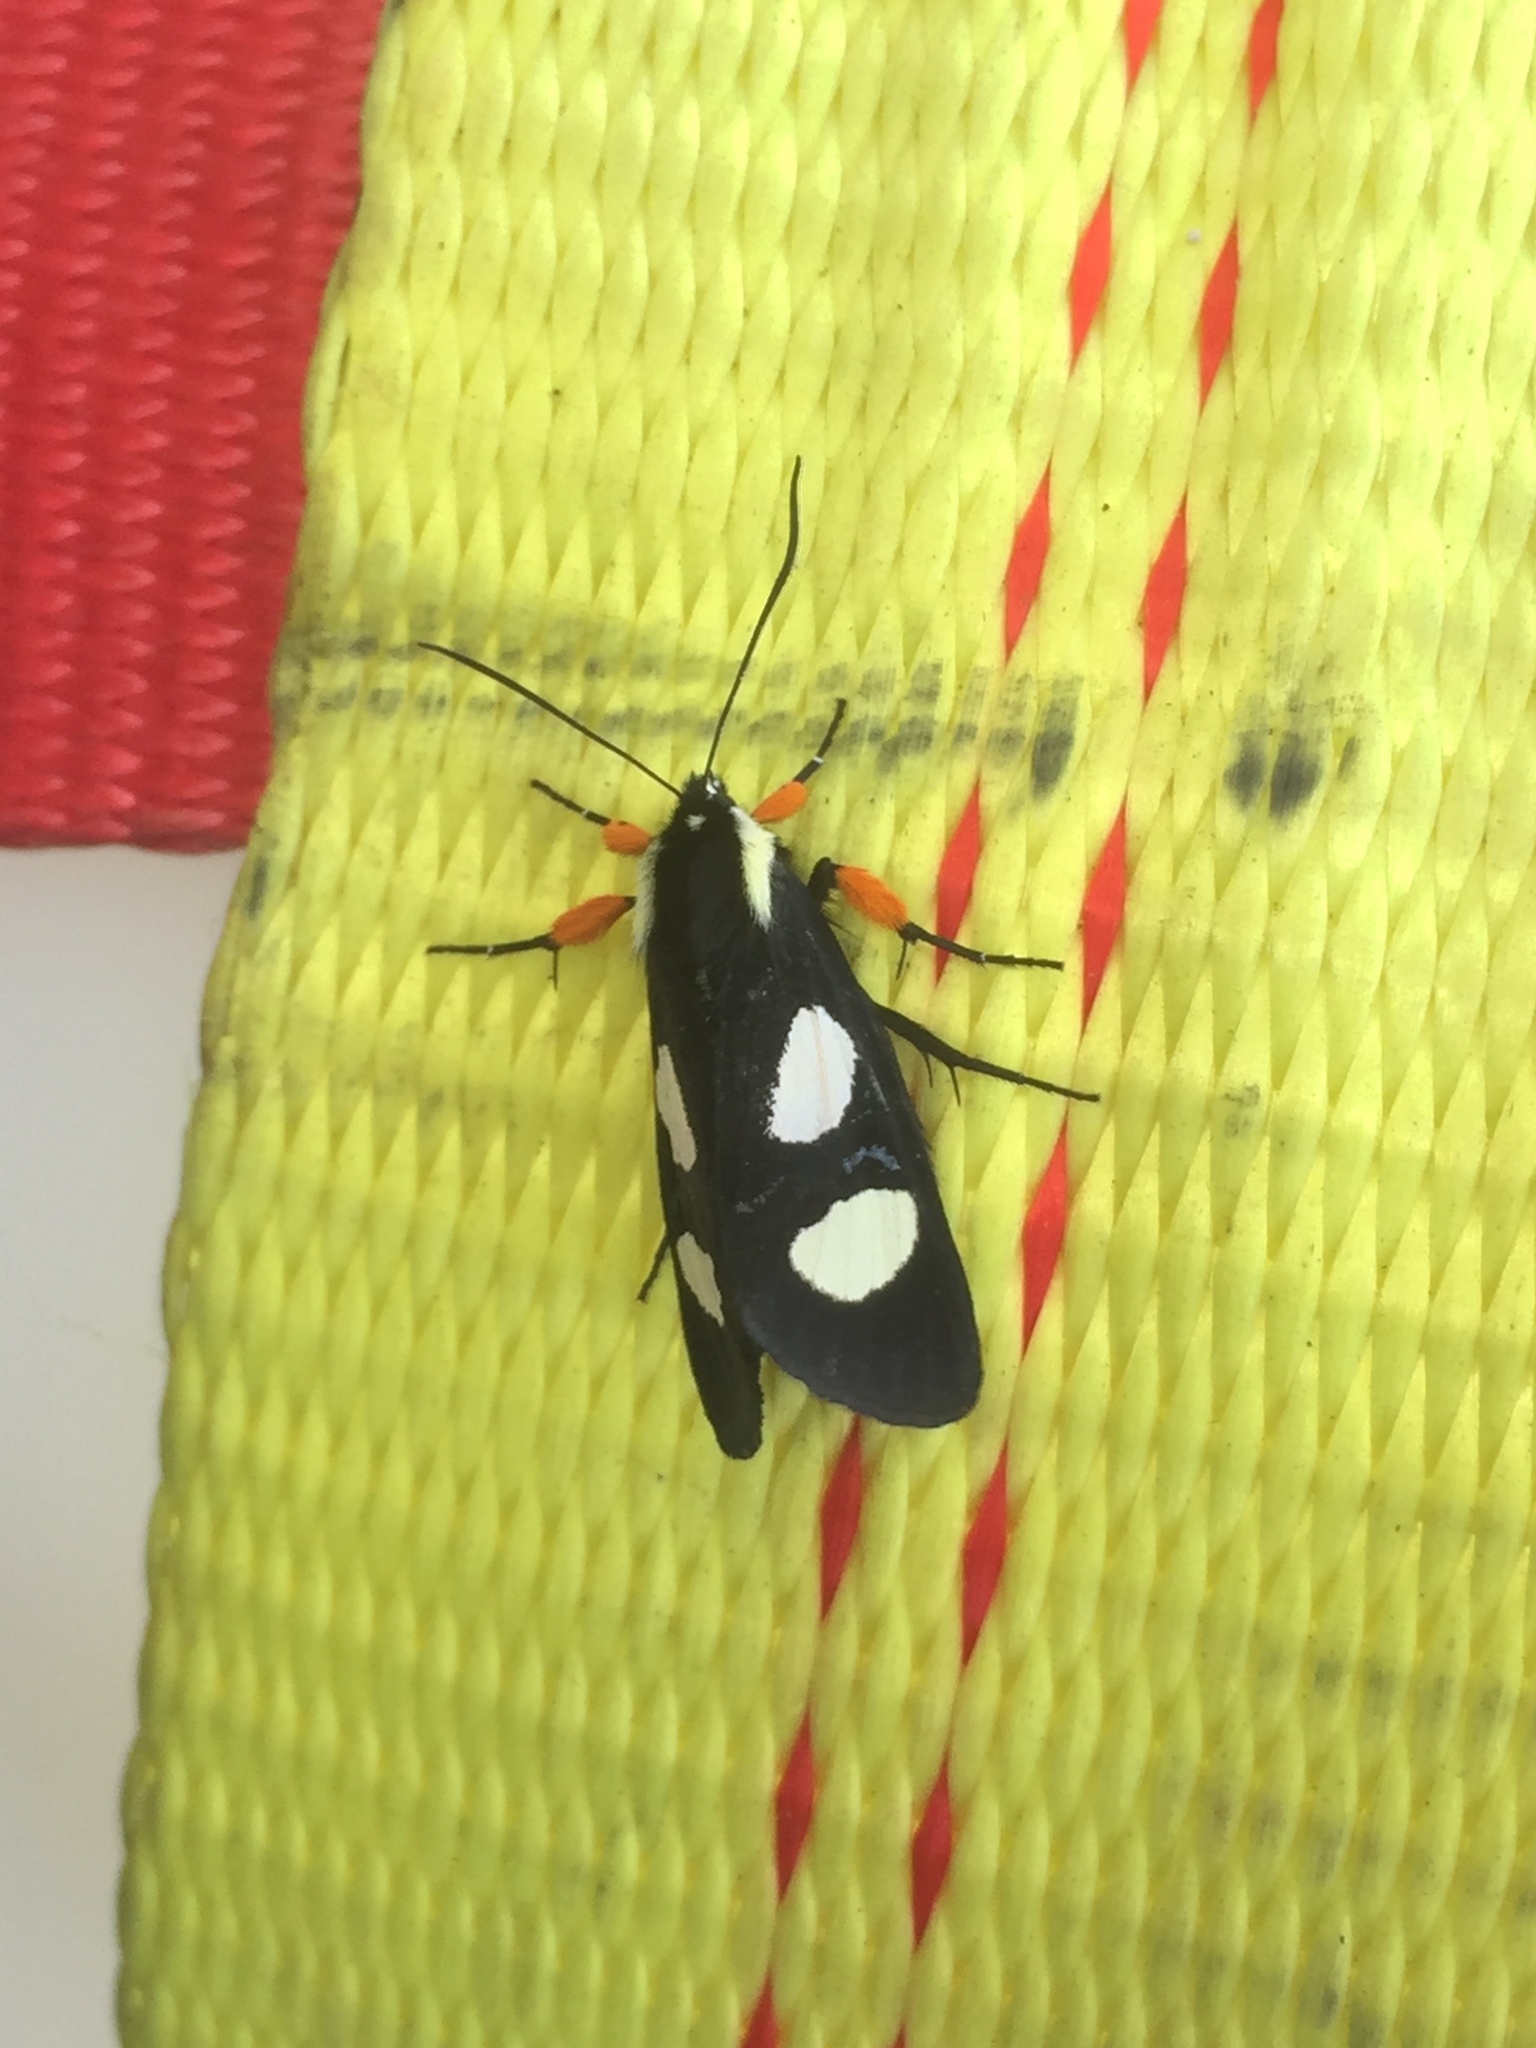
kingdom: Animalia
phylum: Arthropoda
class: Insecta
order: Lepidoptera
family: Noctuidae
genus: Alypia
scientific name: Alypia octomaculata
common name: Eight-spotted forester
